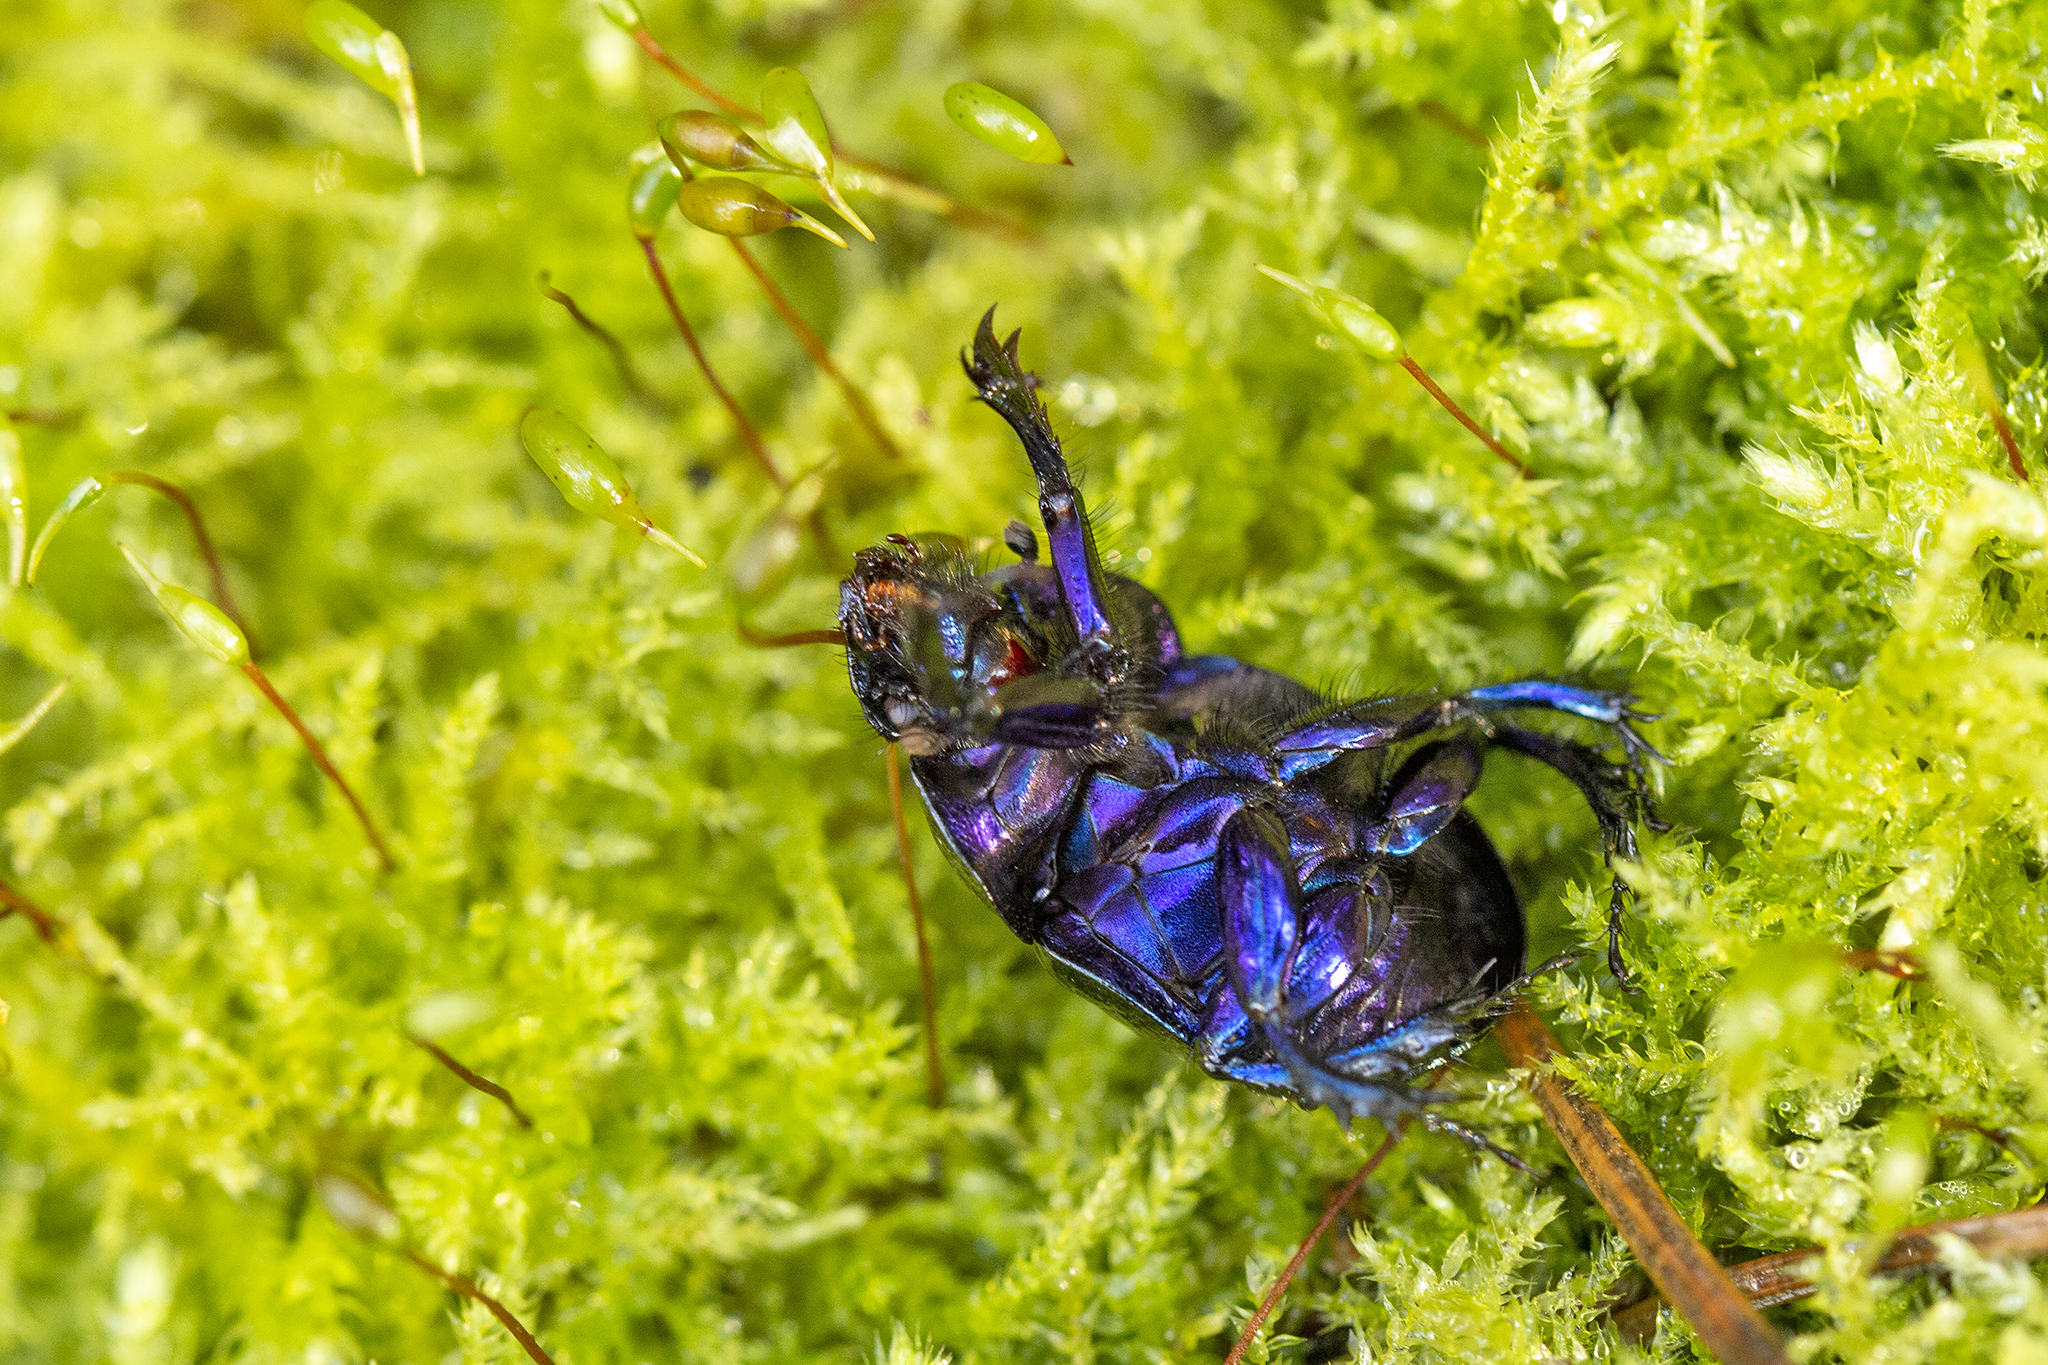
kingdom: Animalia
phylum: Arthropoda
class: Insecta
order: Coleoptera
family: Geotrupidae
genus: Anoplotrupes
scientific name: Anoplotrupes stercorosus
